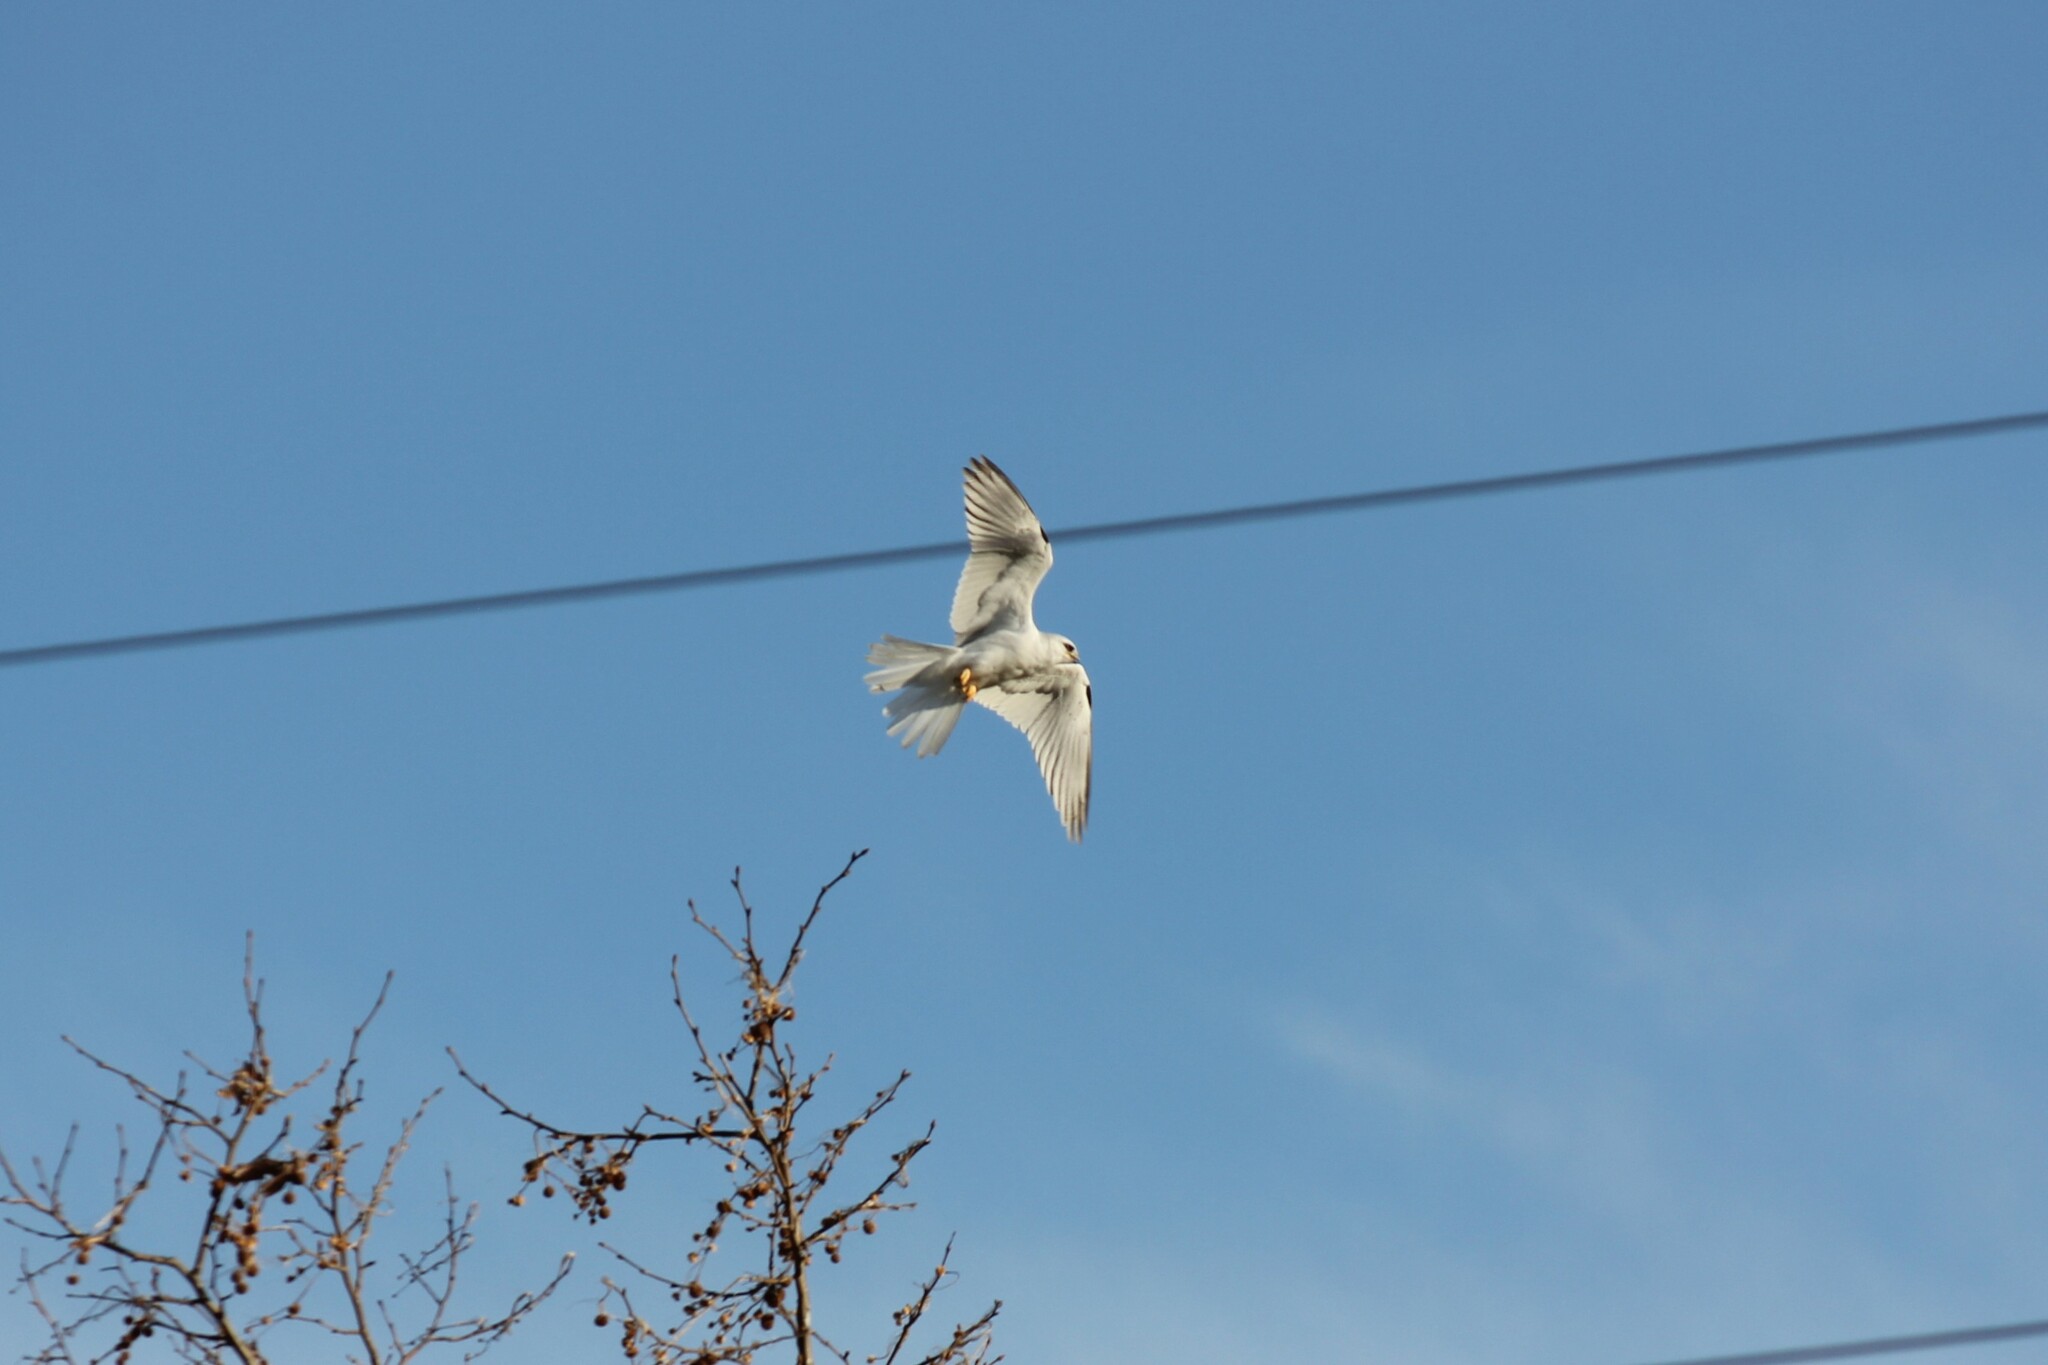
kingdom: Animalia
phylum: Chordata
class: Aves
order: Accipitriformes
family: Accipitridae
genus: Elanus
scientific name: Elanus leucurus
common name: White-tailed kite
